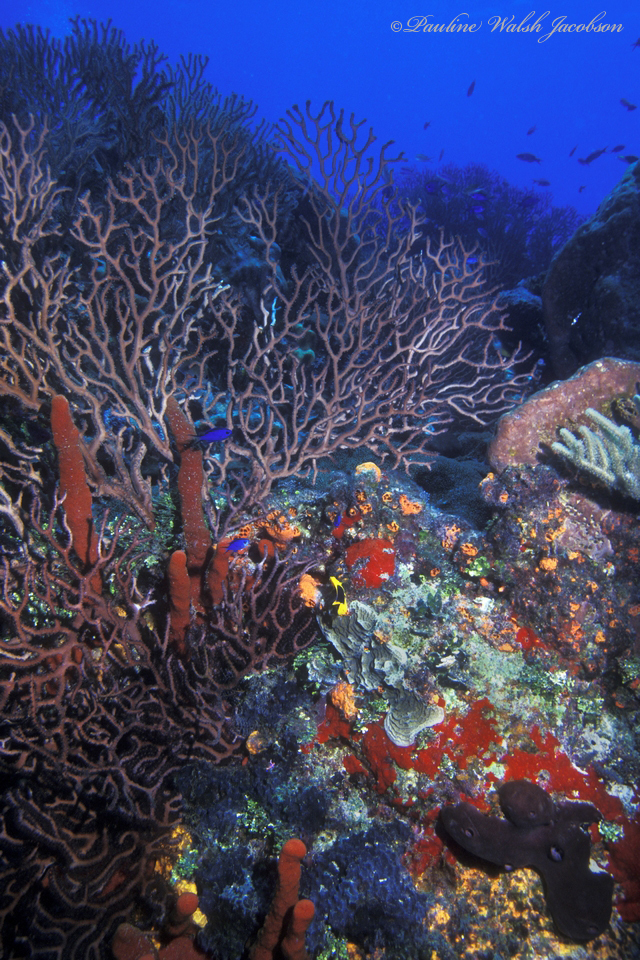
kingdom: Animalia
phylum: Cnidaria
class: Anthozoa
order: Malacalcyonacea
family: Melithaeidae
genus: Iciligorgia
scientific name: Iciligorgia schrammi
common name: Black sea fan
